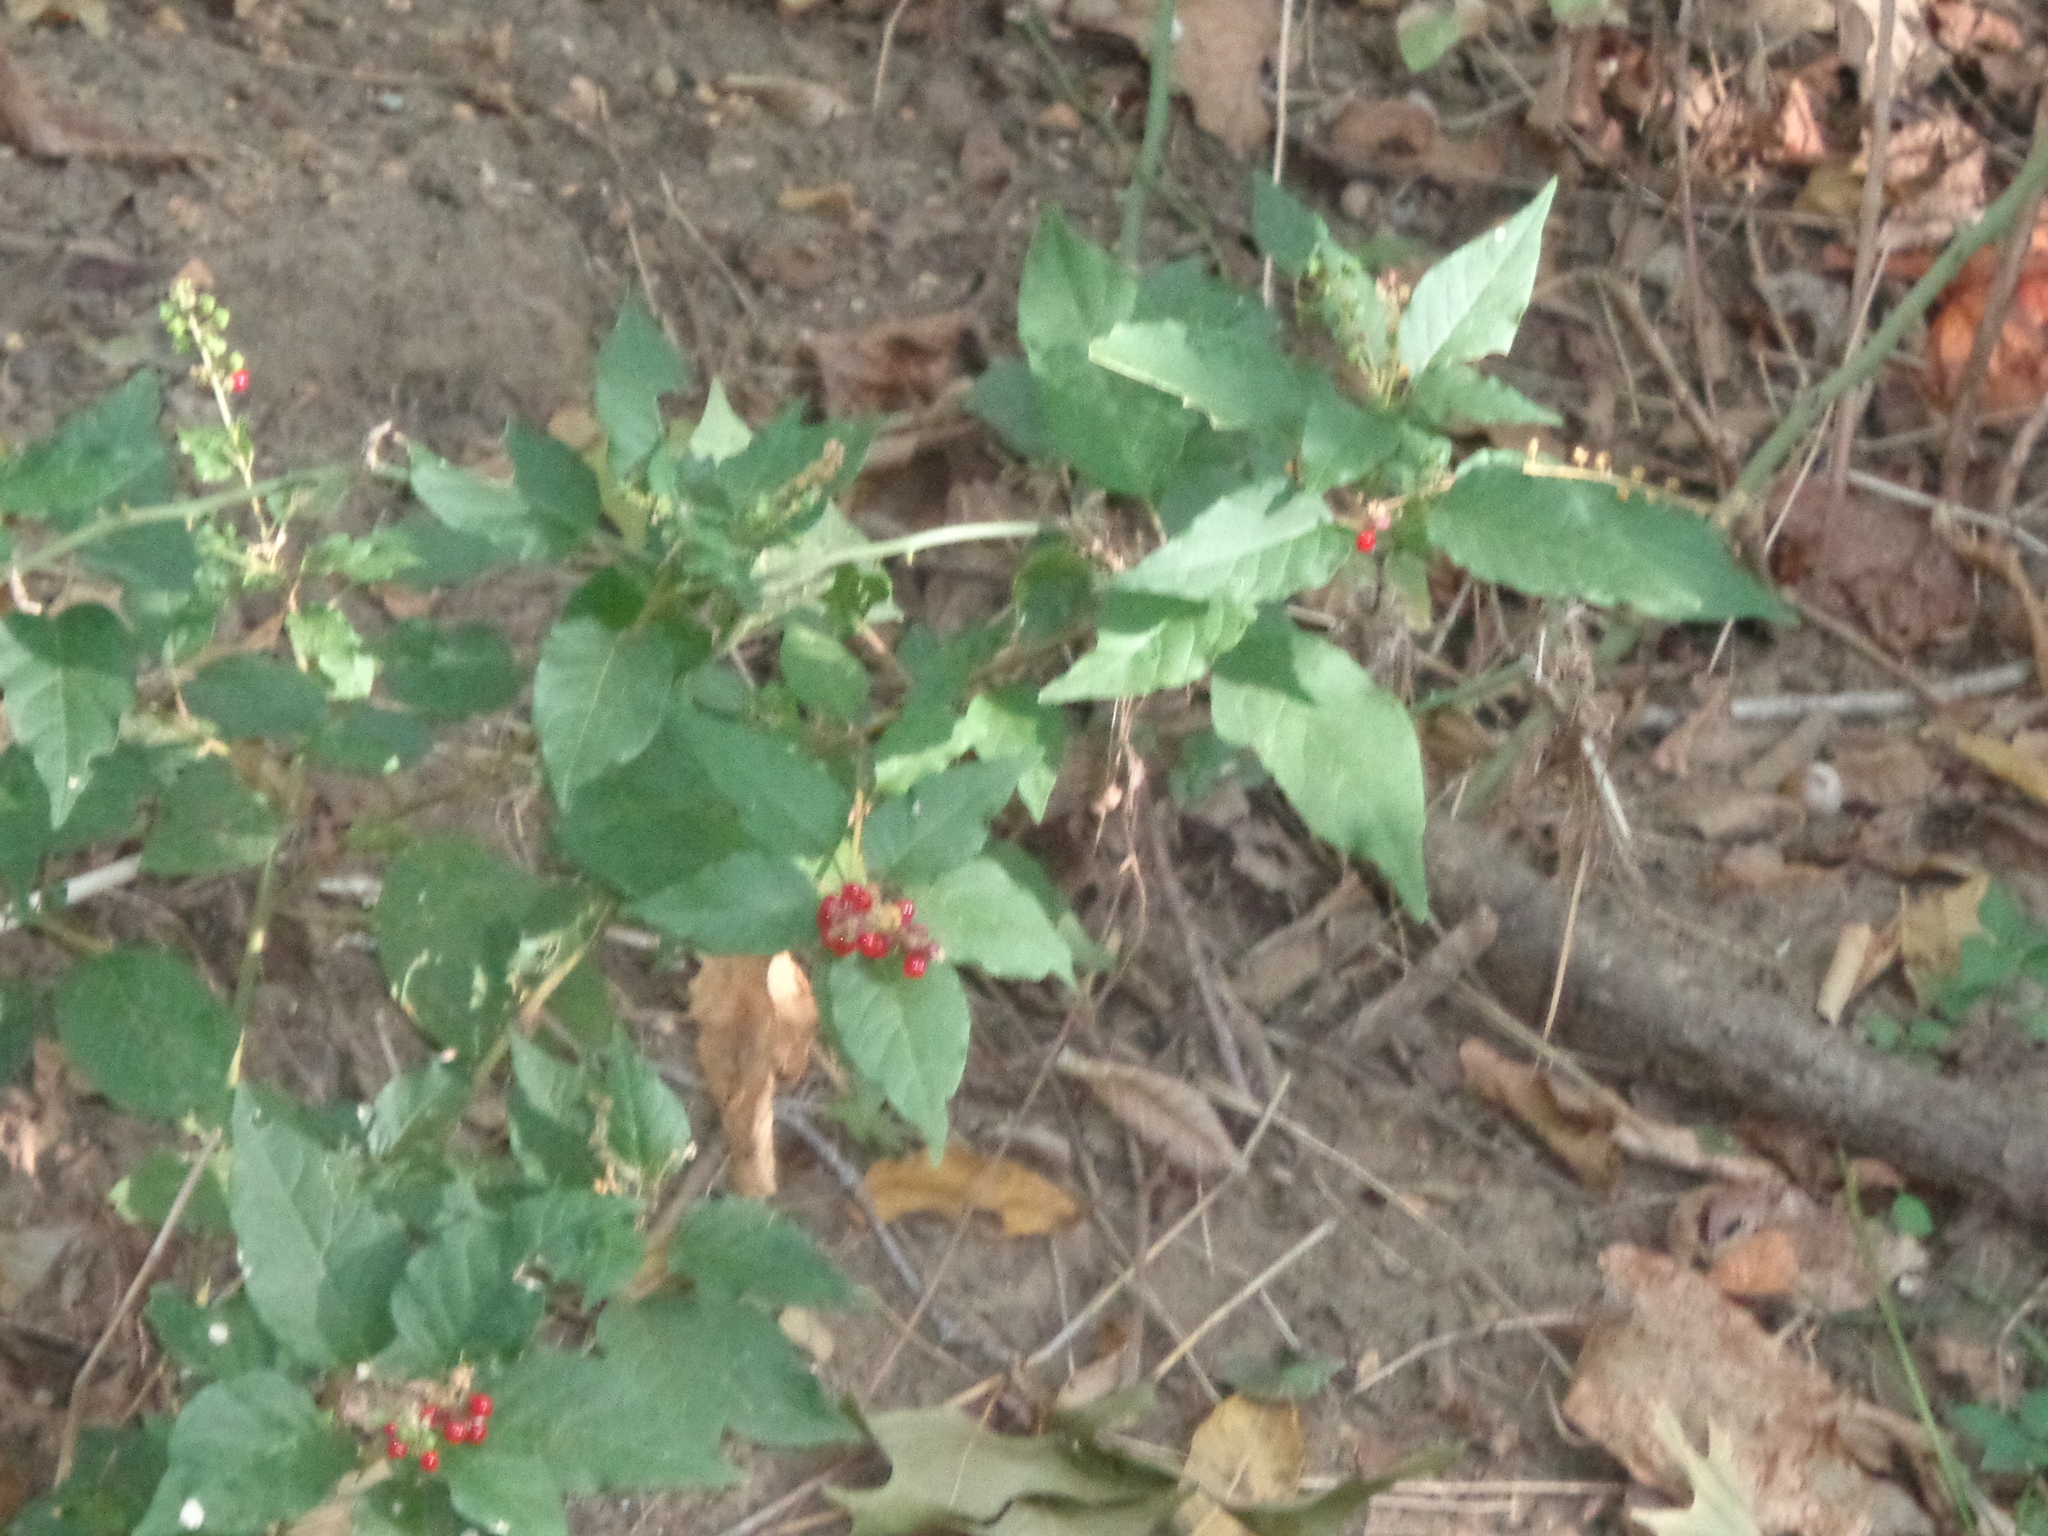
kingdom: Plantae
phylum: Tracheophyta
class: Magnoliopsida
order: Caryophyllales
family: Phytolaccaceae
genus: Rivina
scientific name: Rivina humilis
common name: Rougeplant
